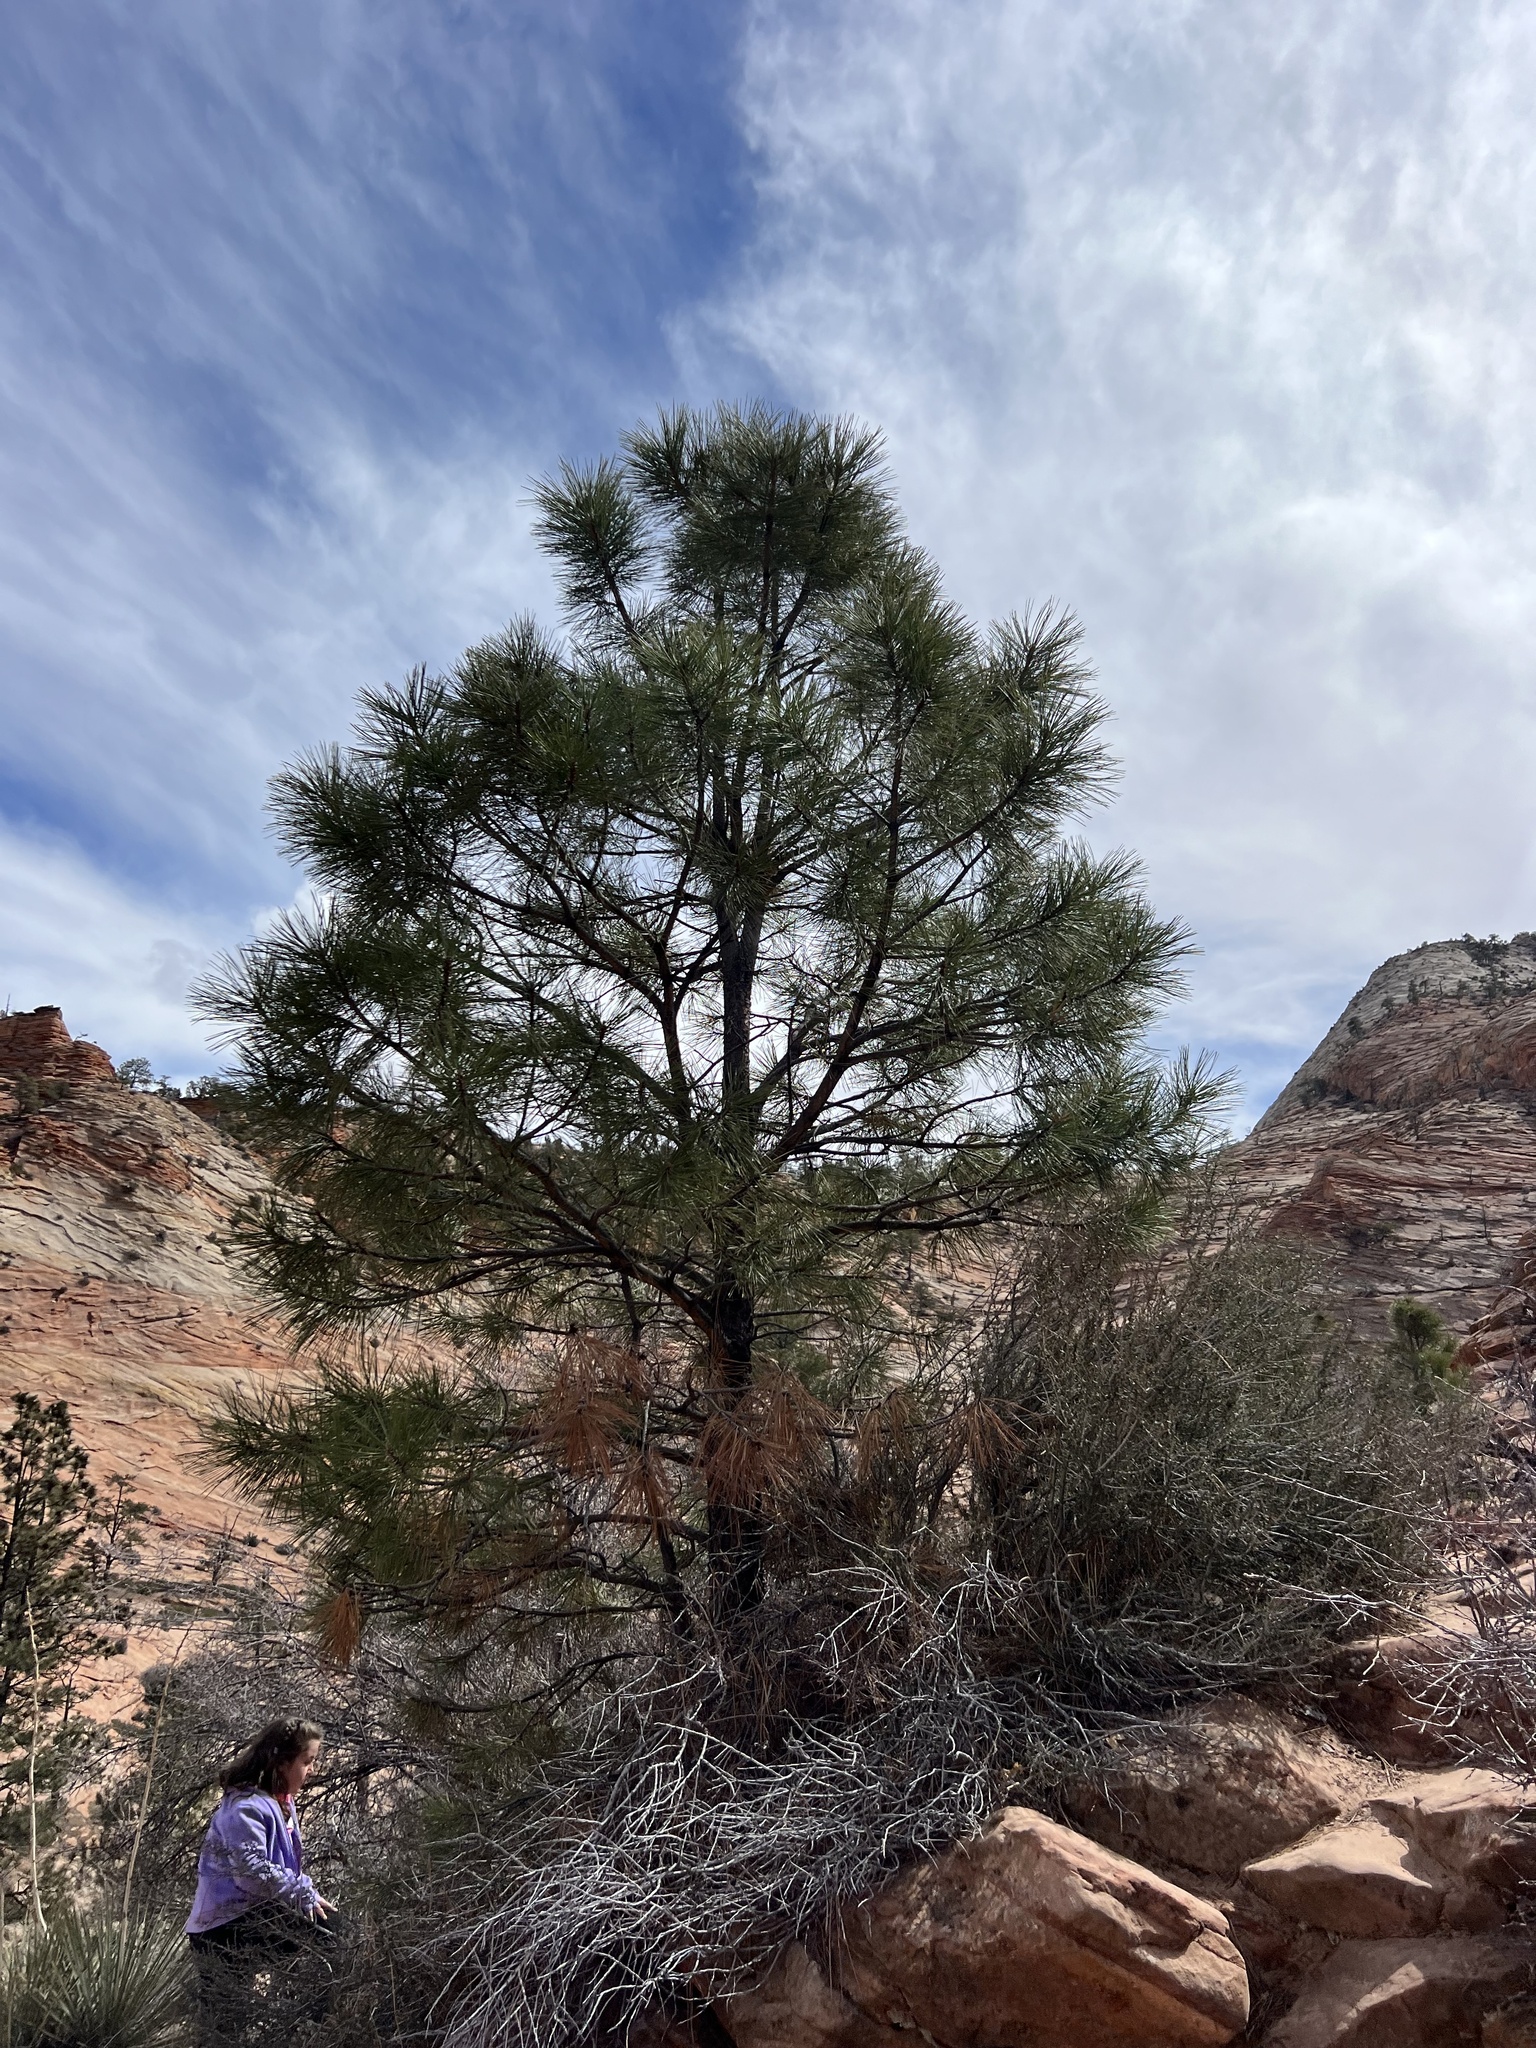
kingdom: Plantae
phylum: Tracheophyta
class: Pinopsida
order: Pinales
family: Pinaceae
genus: Pinus
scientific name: Pinus ponderosa
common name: Western yellow-pine
